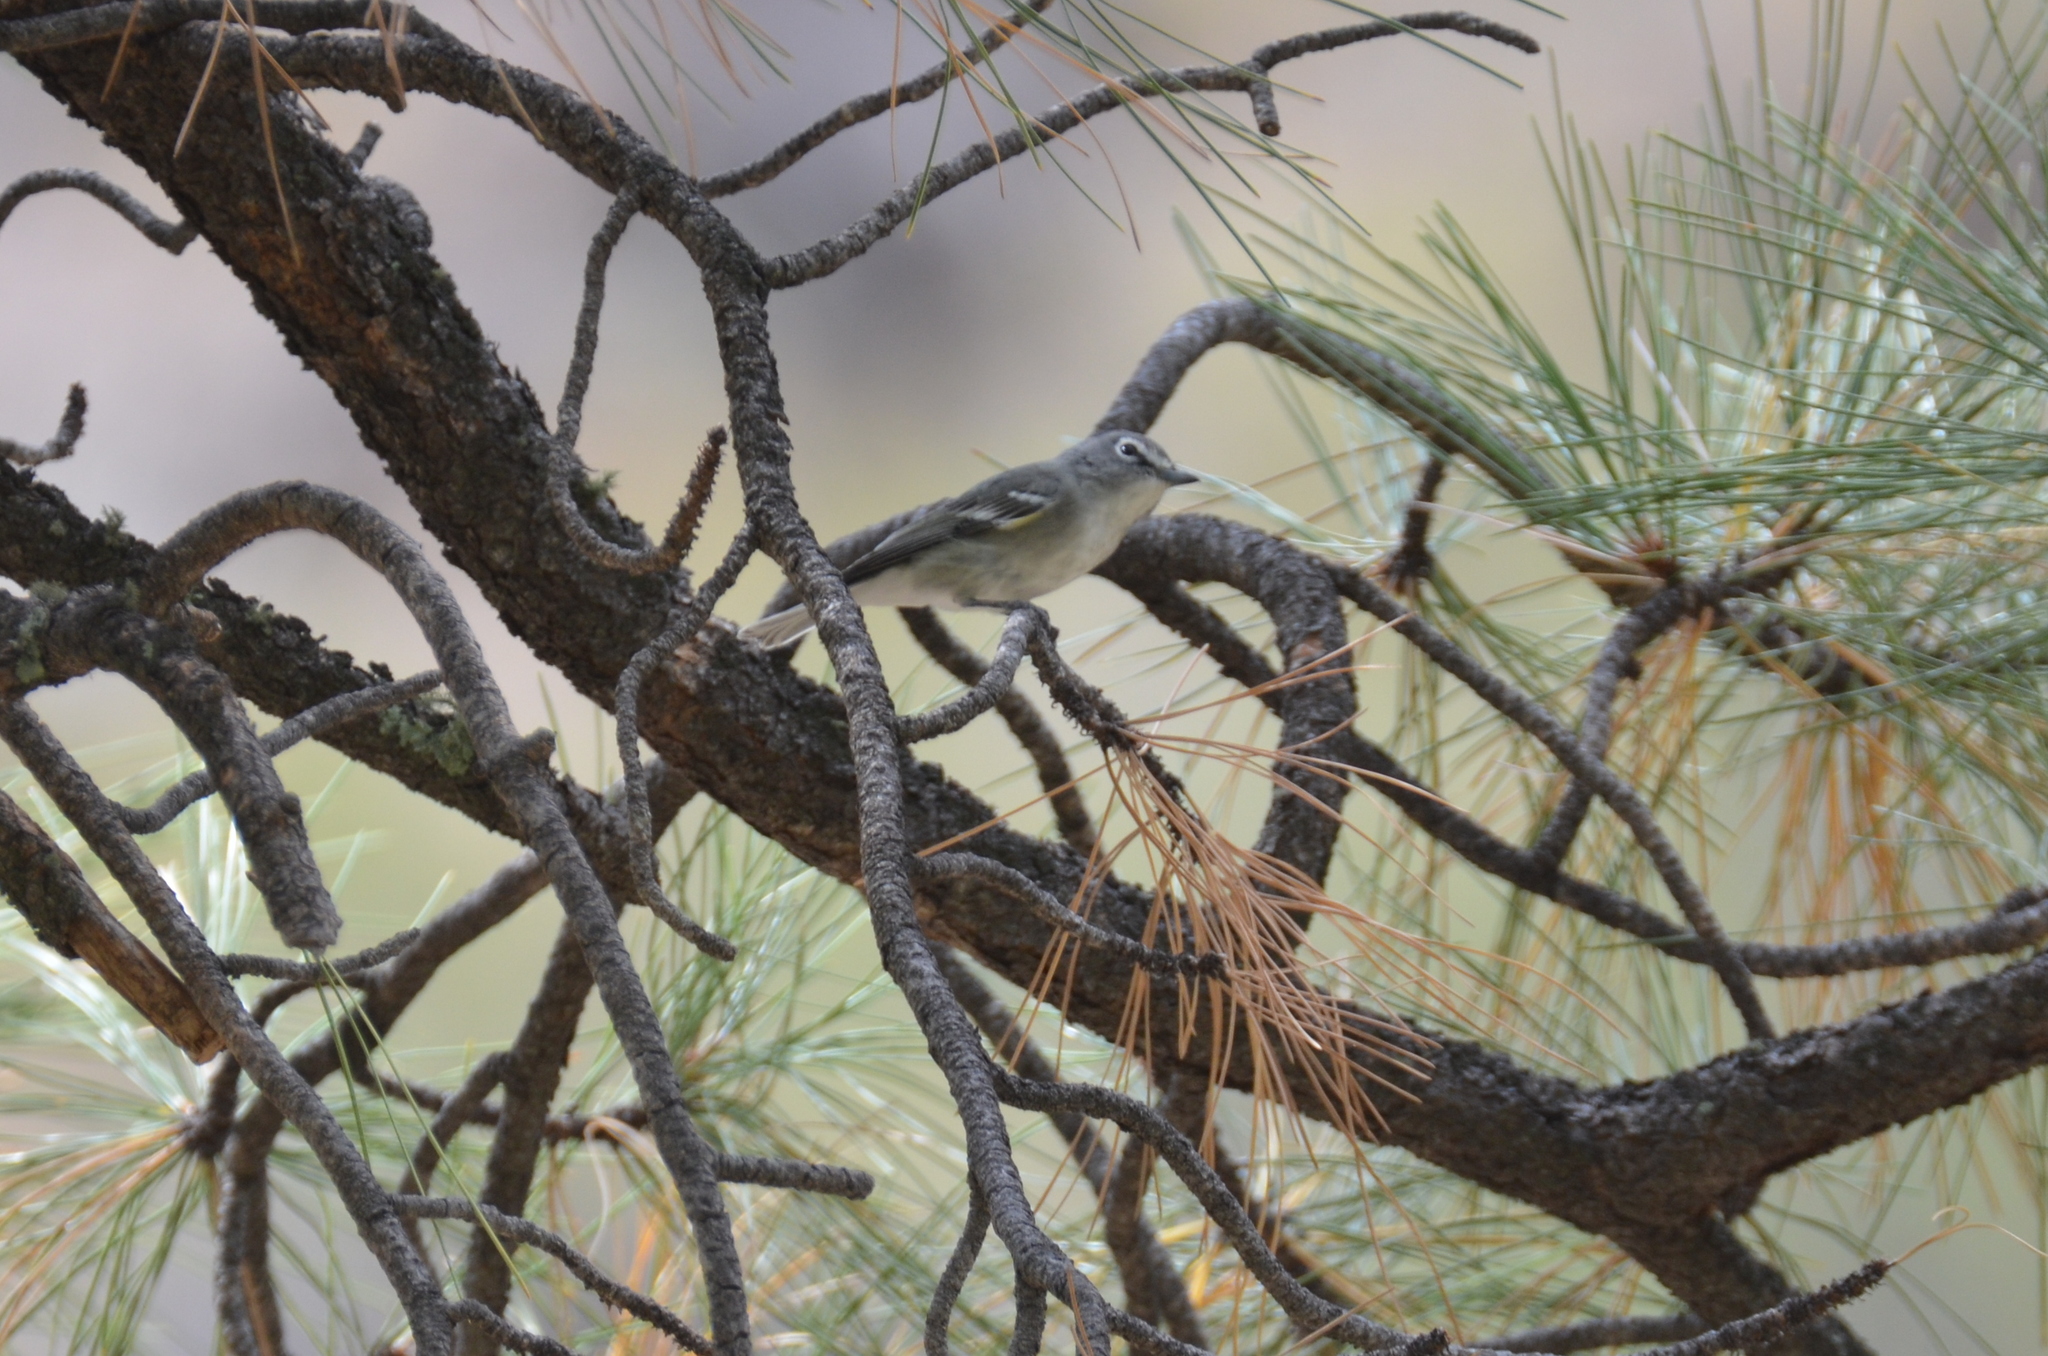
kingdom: Animalia
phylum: Chordata
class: Aves
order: Passeriformes
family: Vireonidae
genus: Vireo
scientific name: Vireo plumbeus
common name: Plumbeous vireo
